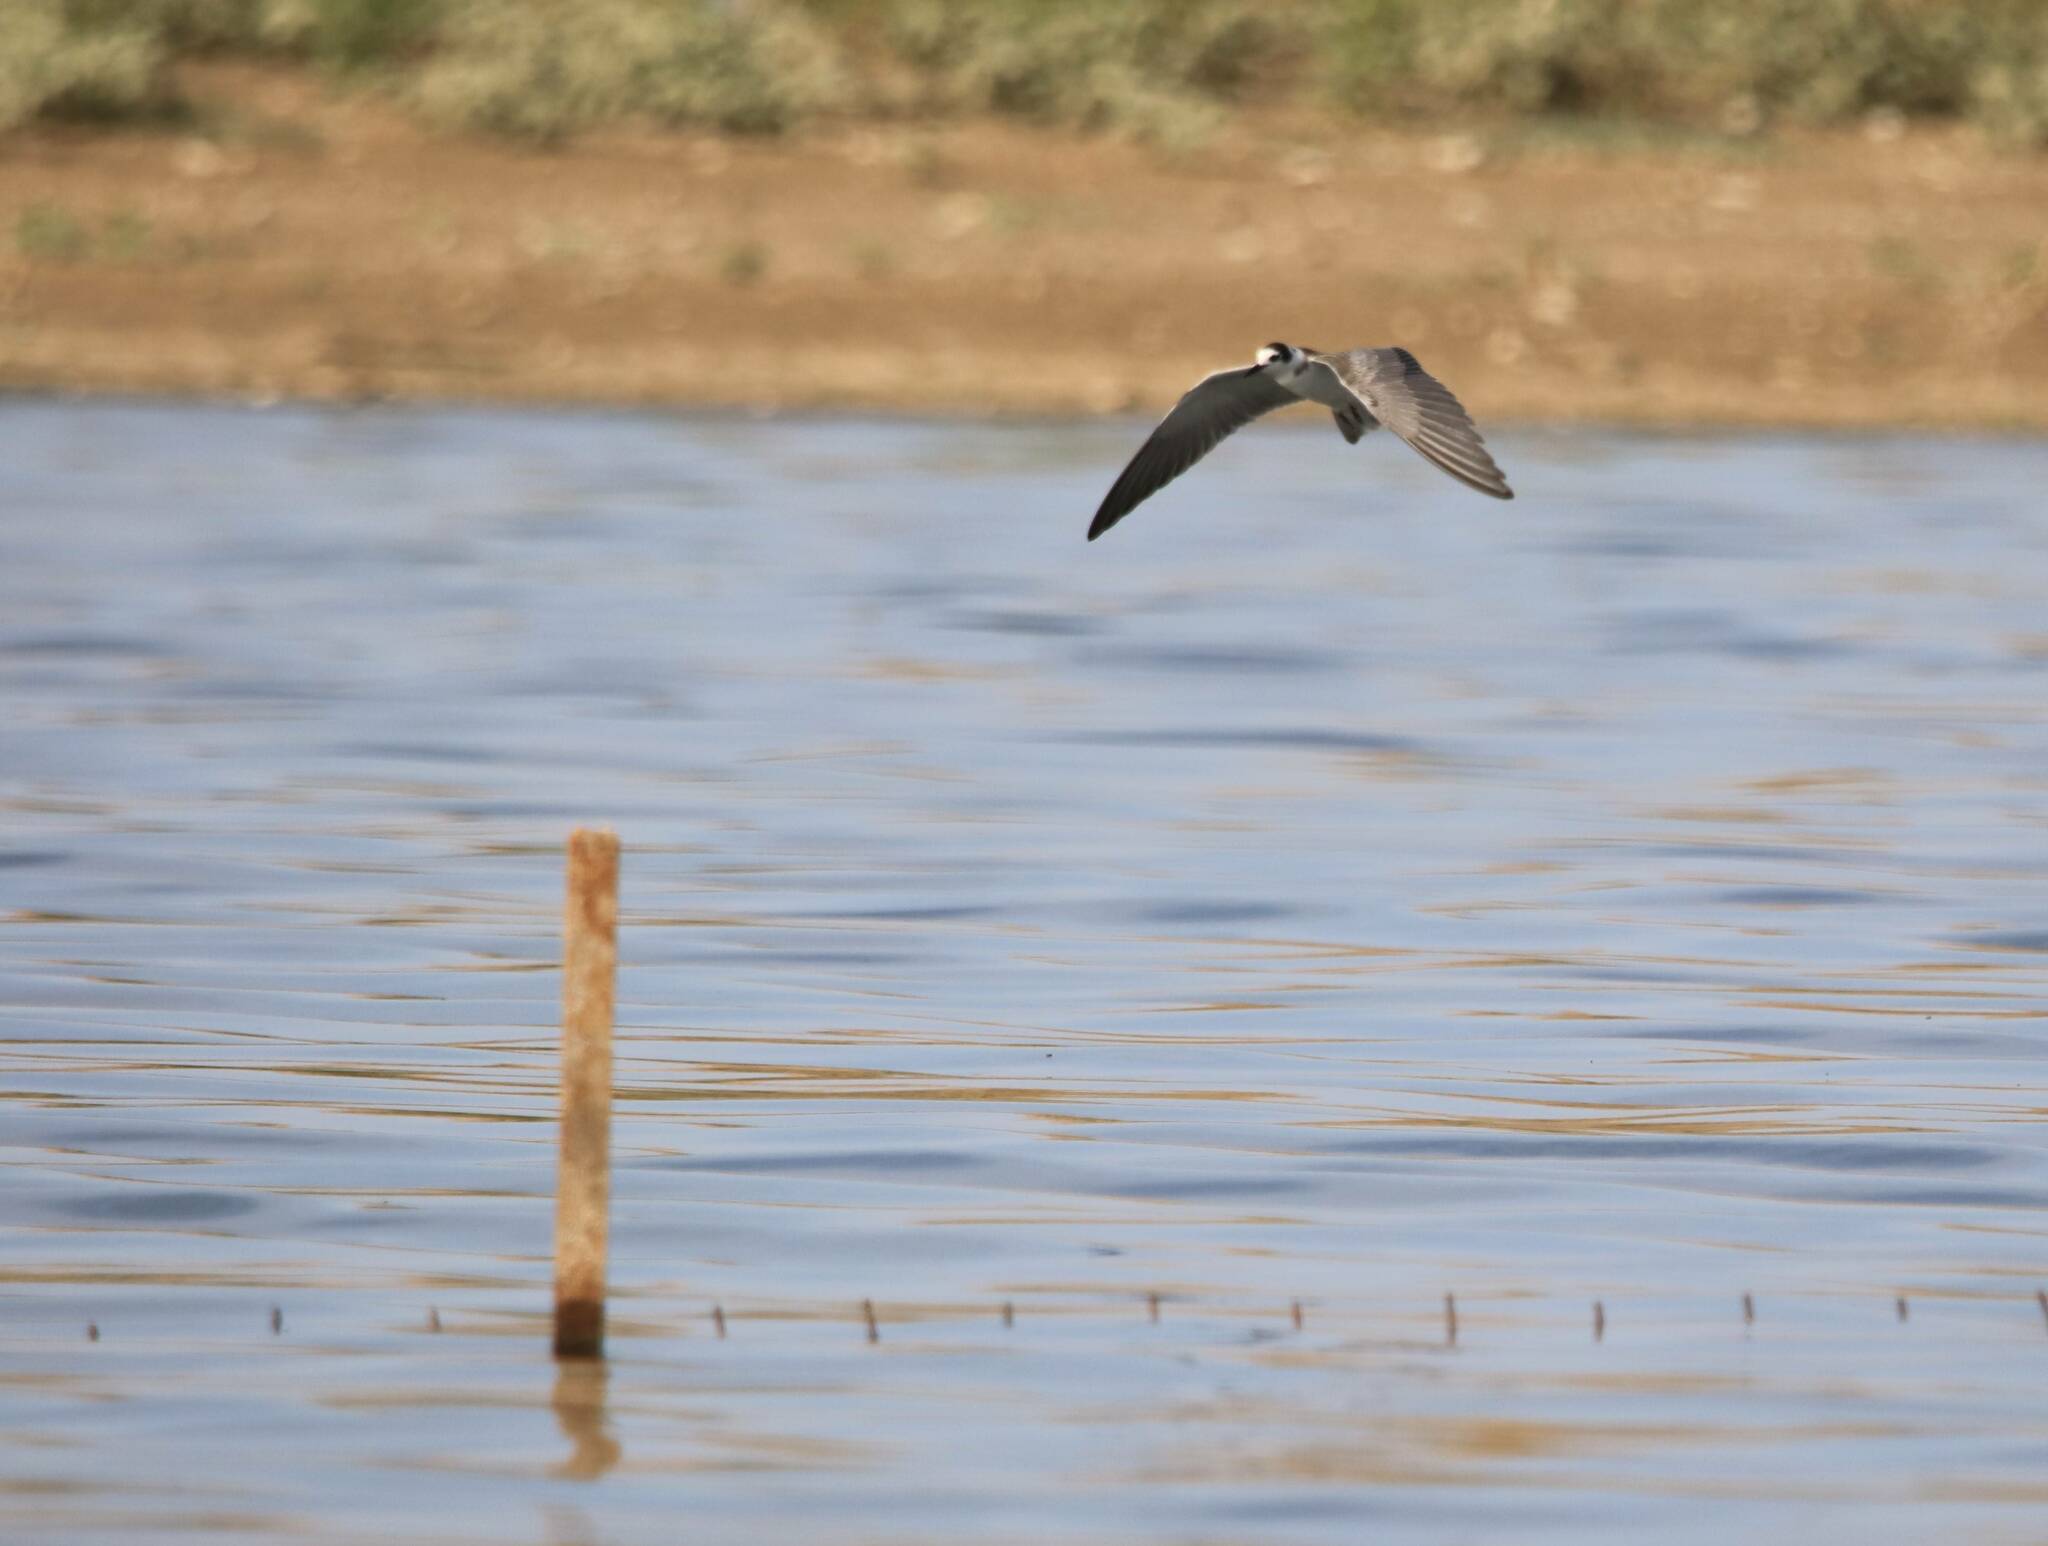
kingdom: Animalia
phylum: Chordata
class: Aves
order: Charadriiformes
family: Laridae
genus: Chlidonias
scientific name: Chlidonias niger
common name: Black tern
